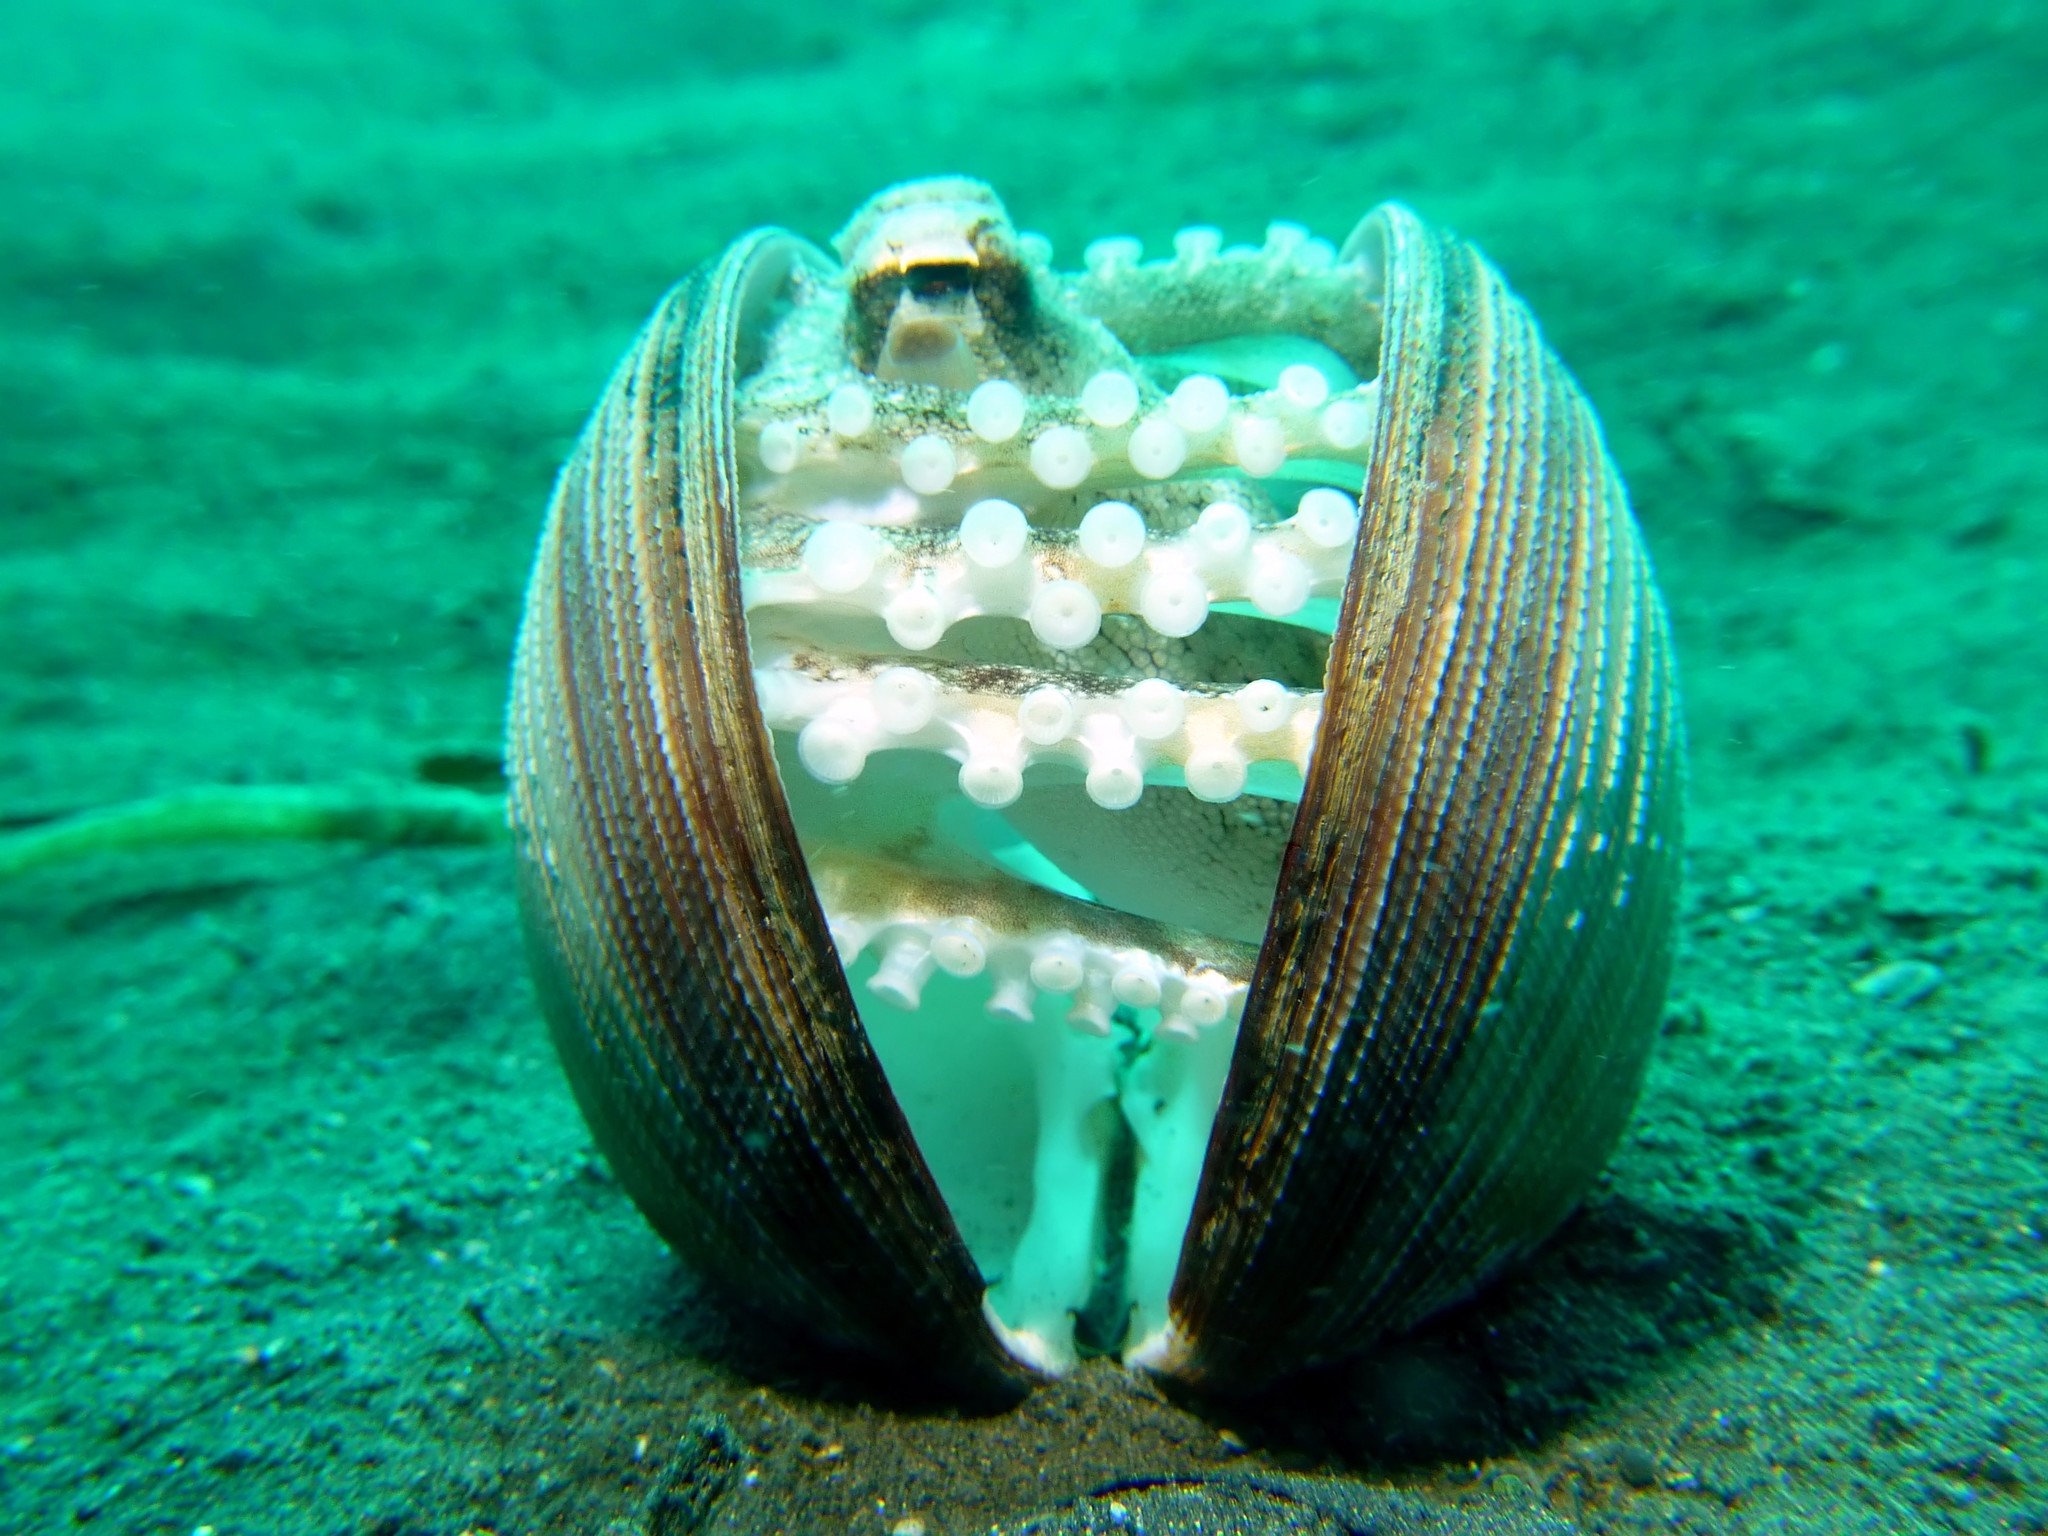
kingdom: Animalia
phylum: Mollusca
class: Cephalopoda
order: Octopoda
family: Octopodidae
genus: Amphioctopus
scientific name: Amphioctopus marginatus
